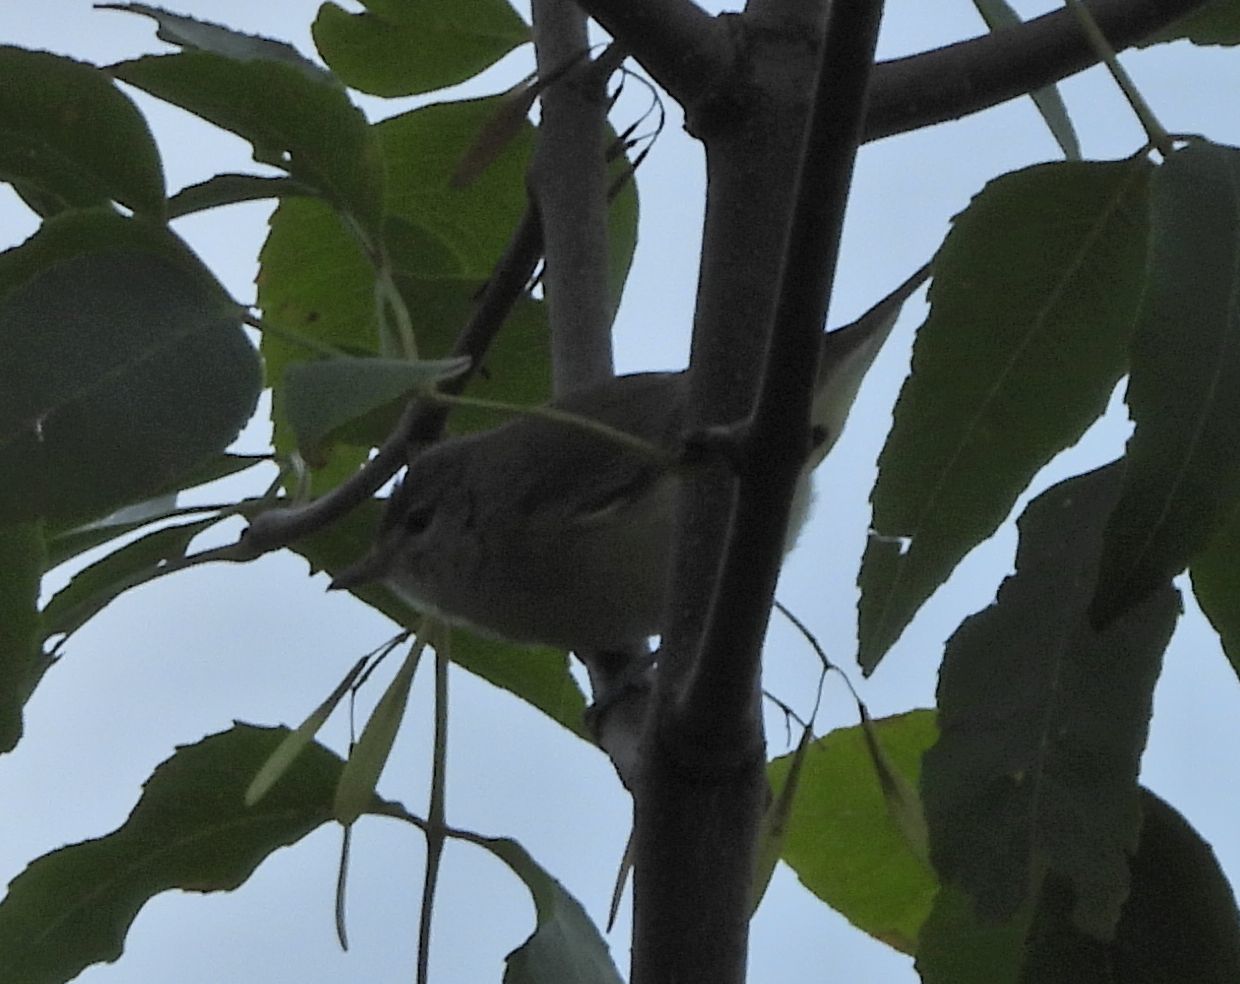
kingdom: Animalia
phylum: Chordata
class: Aves
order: Passeriformes
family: Vireonidae
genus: Vireo
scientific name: Vireo gilvus
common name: Warbling vireo
